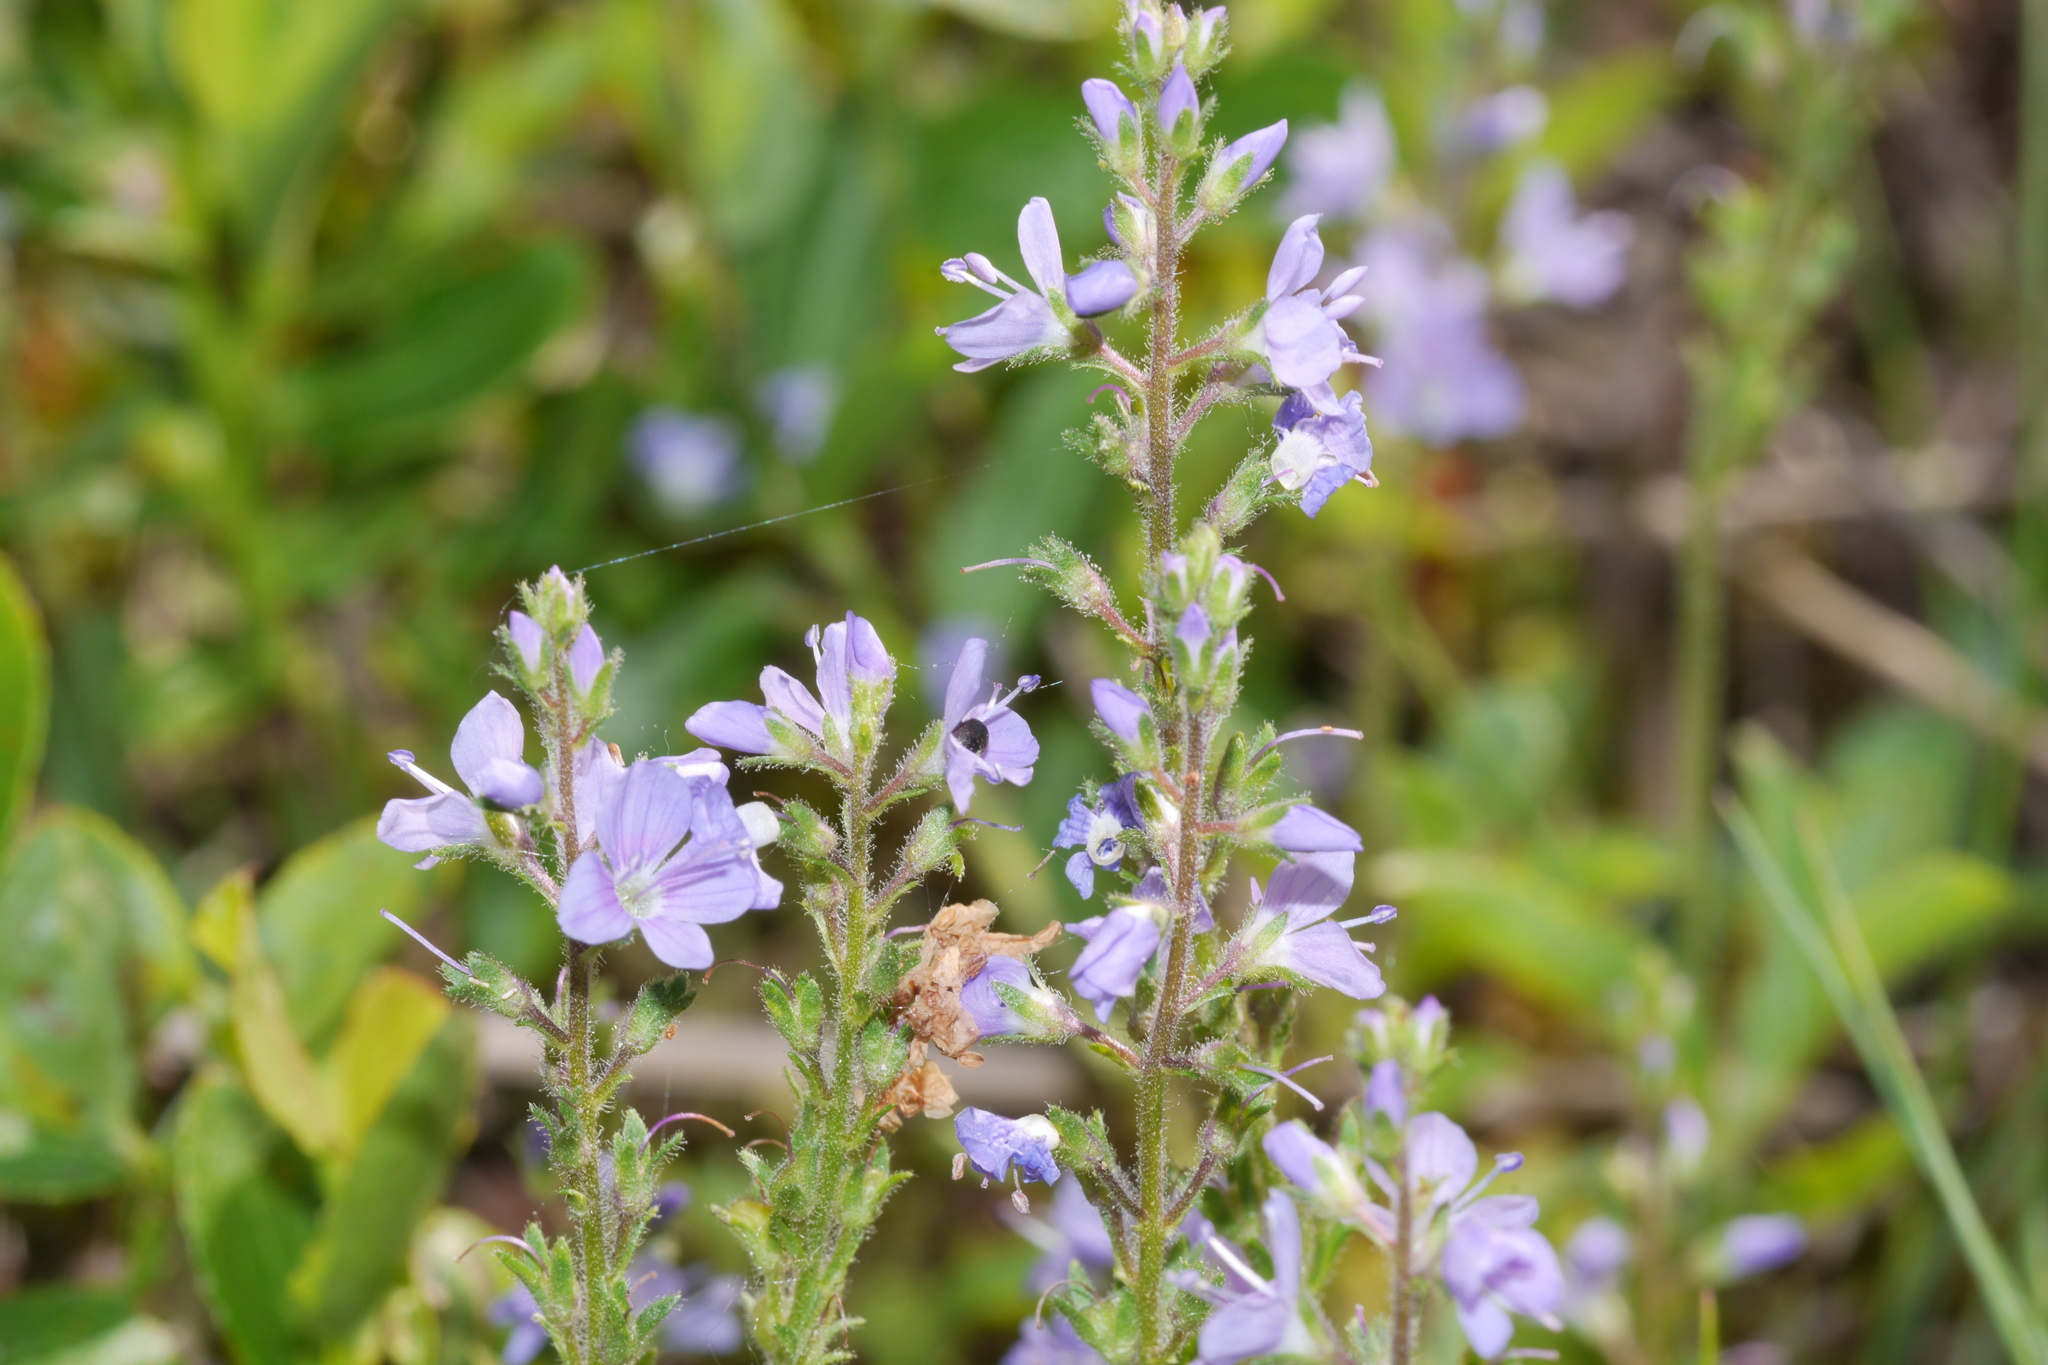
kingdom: Plantae
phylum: Tracheophyta
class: Magnoliopsida
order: Lamiales
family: Plantaginaceae
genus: Veronica
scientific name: Veronica officinalis
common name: Common speedwell
